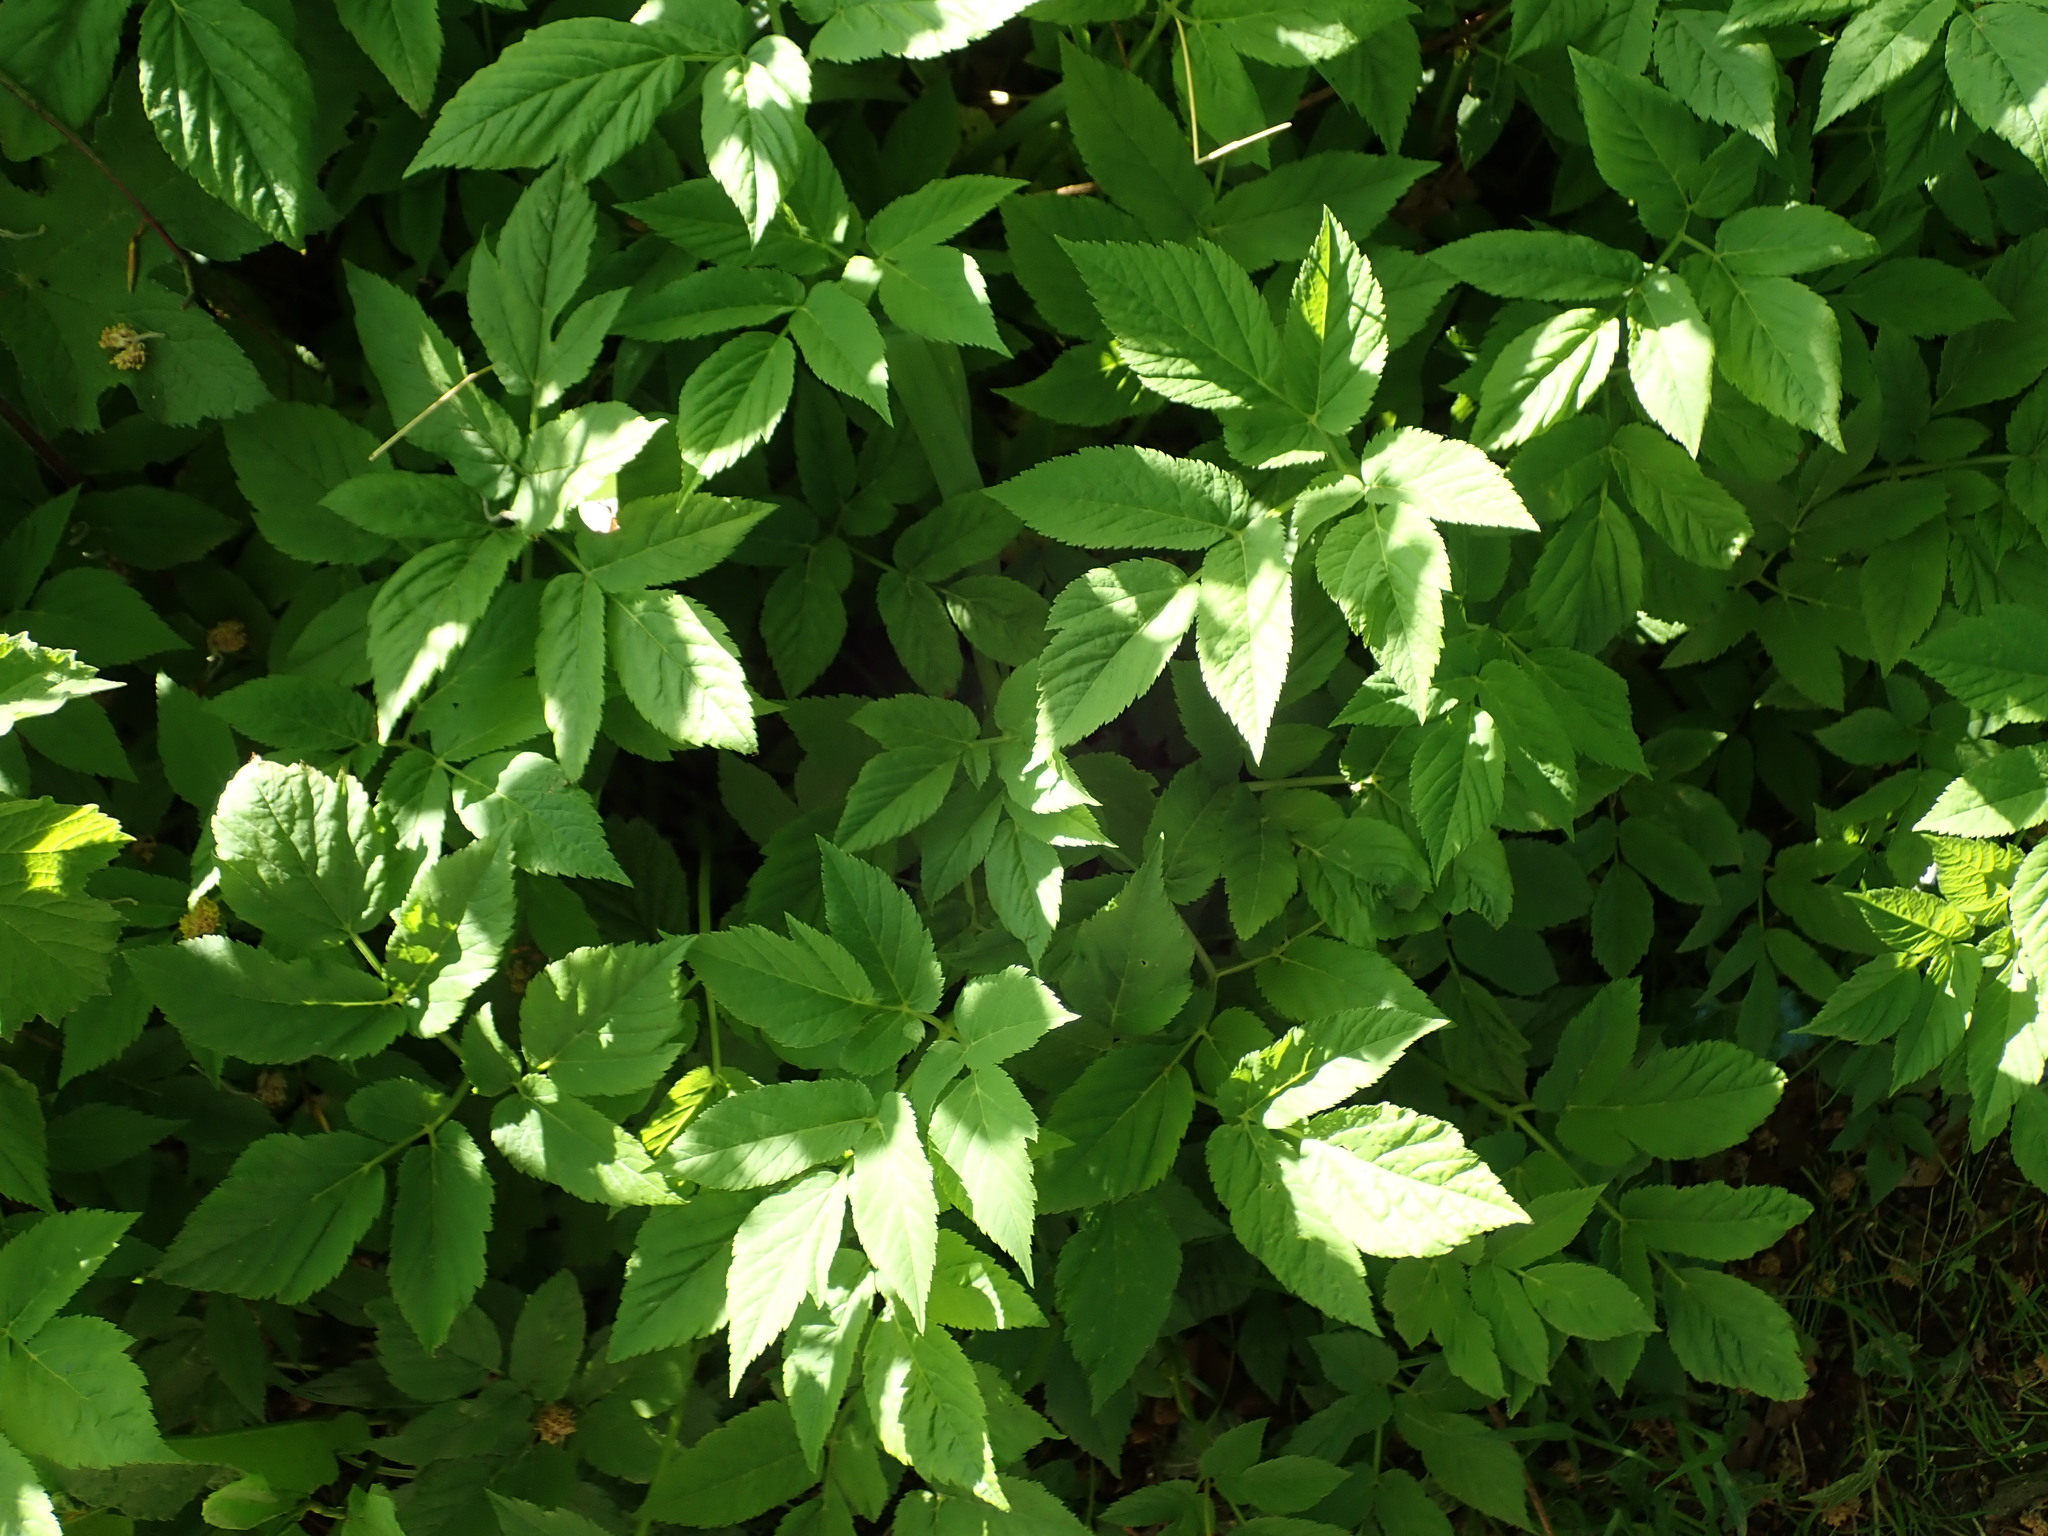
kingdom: Plantae
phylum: Tracheophyta
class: Magnoliopsida
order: Apiales
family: Apiaceae
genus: Aegopodium
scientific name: Aegopodium podagraria
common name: Ground-elder
